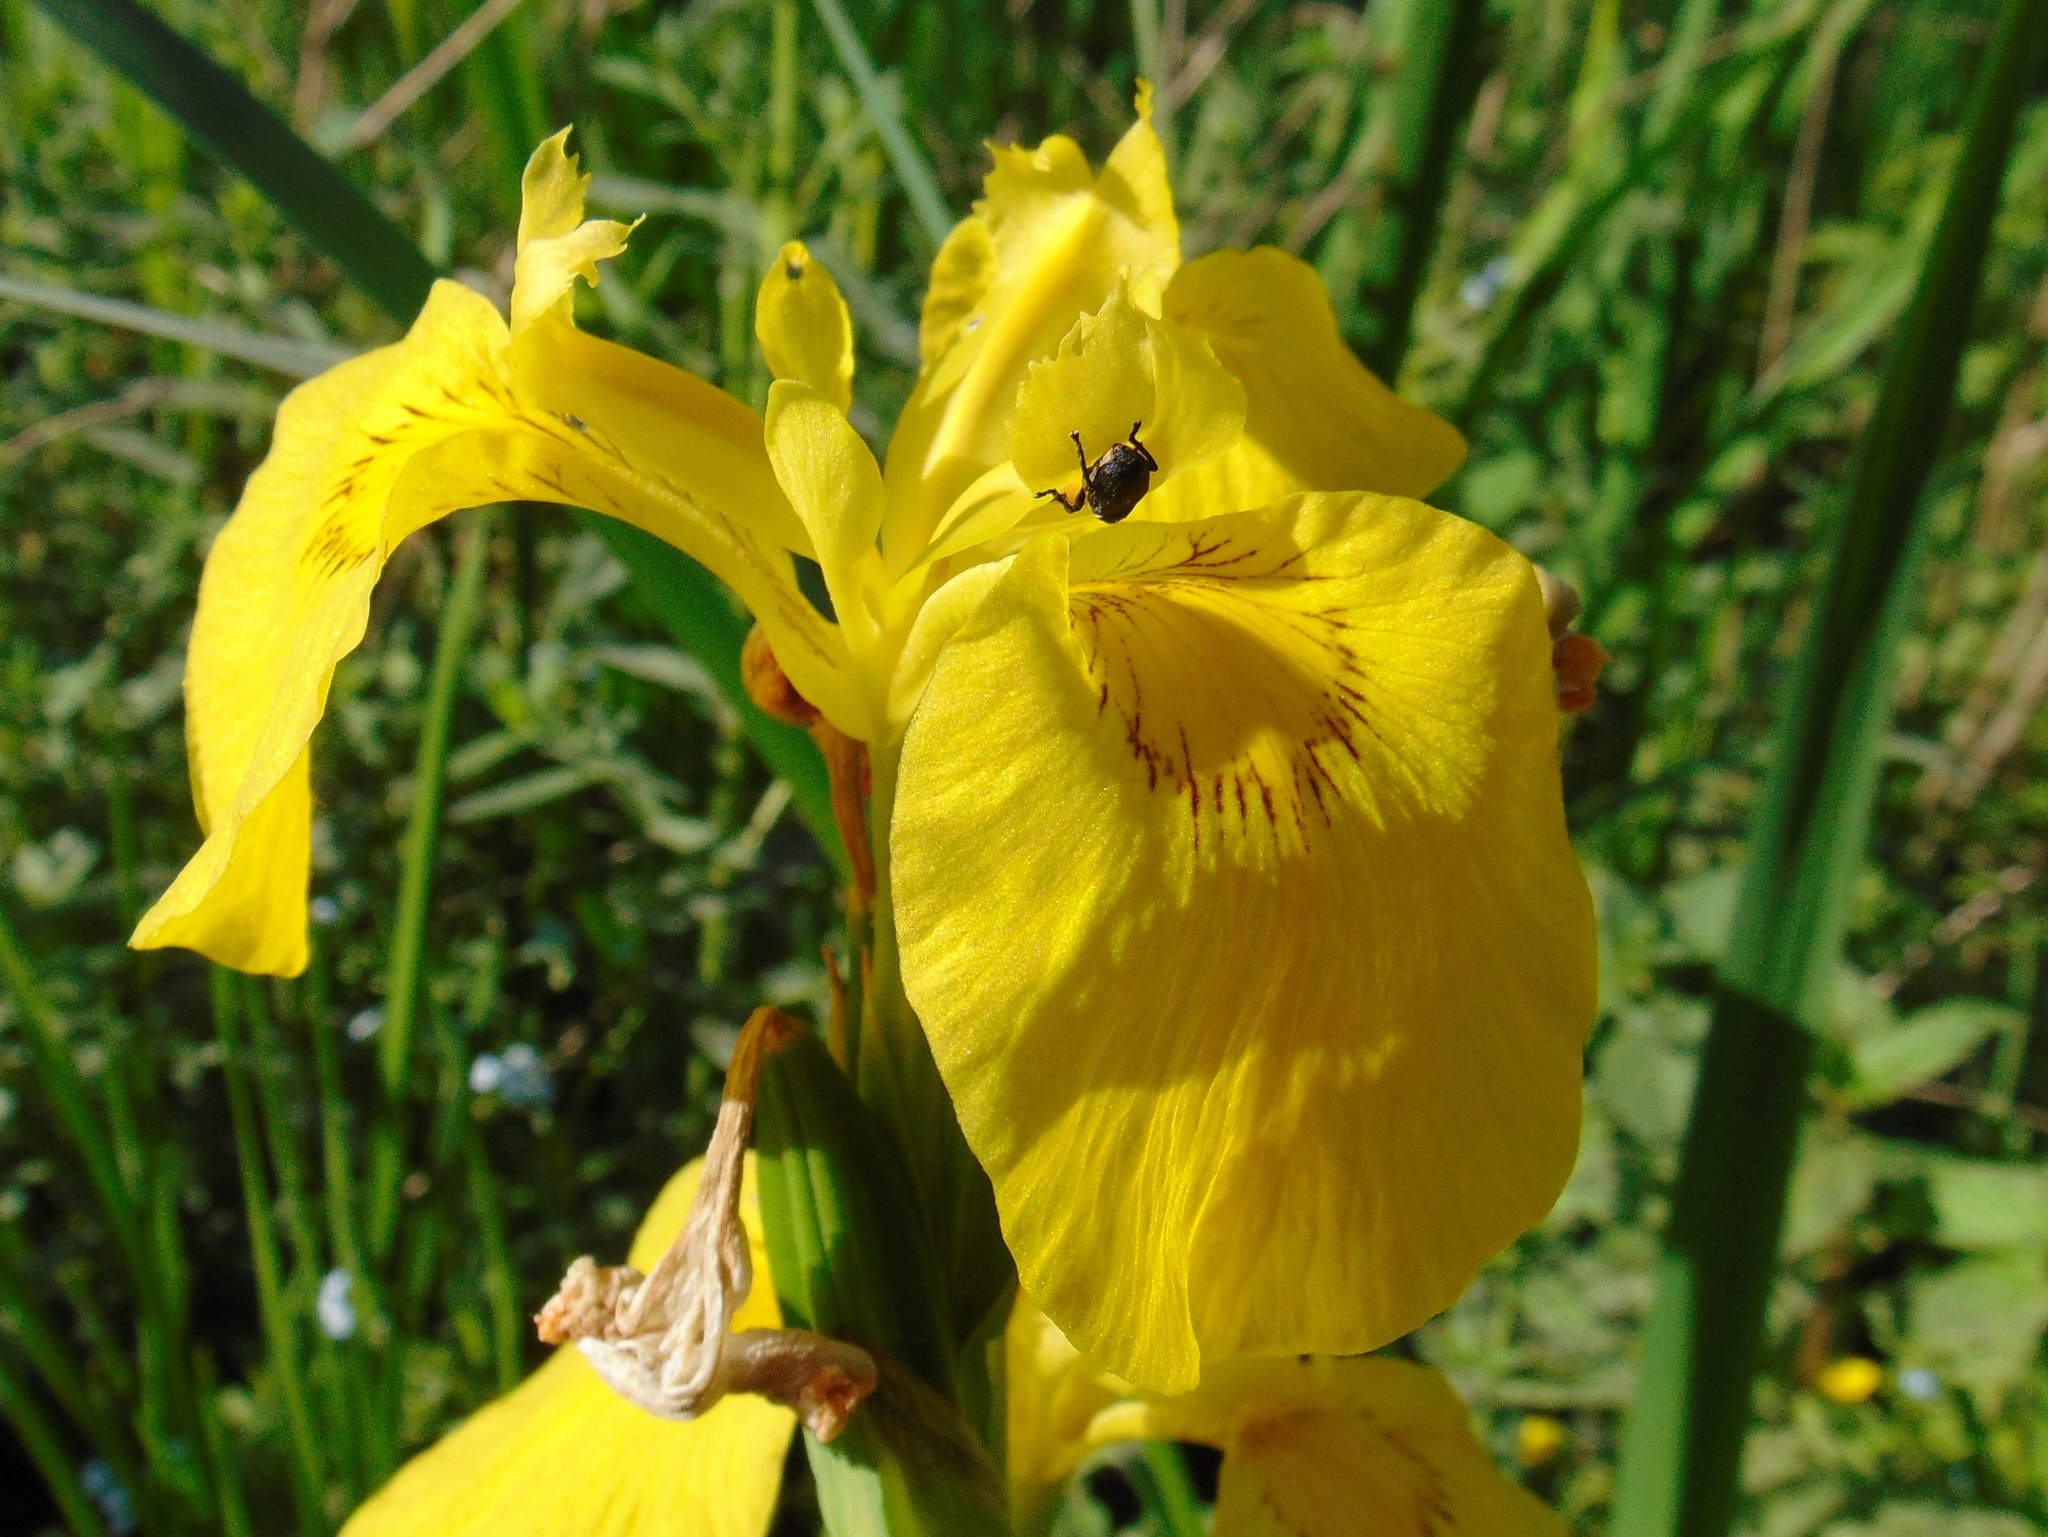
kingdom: Plantae
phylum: Tracheophyta
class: Liliopsida
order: Asparagales
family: Iridaceae
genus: Iris
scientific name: Iris pseudacorus
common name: Yellow flag
